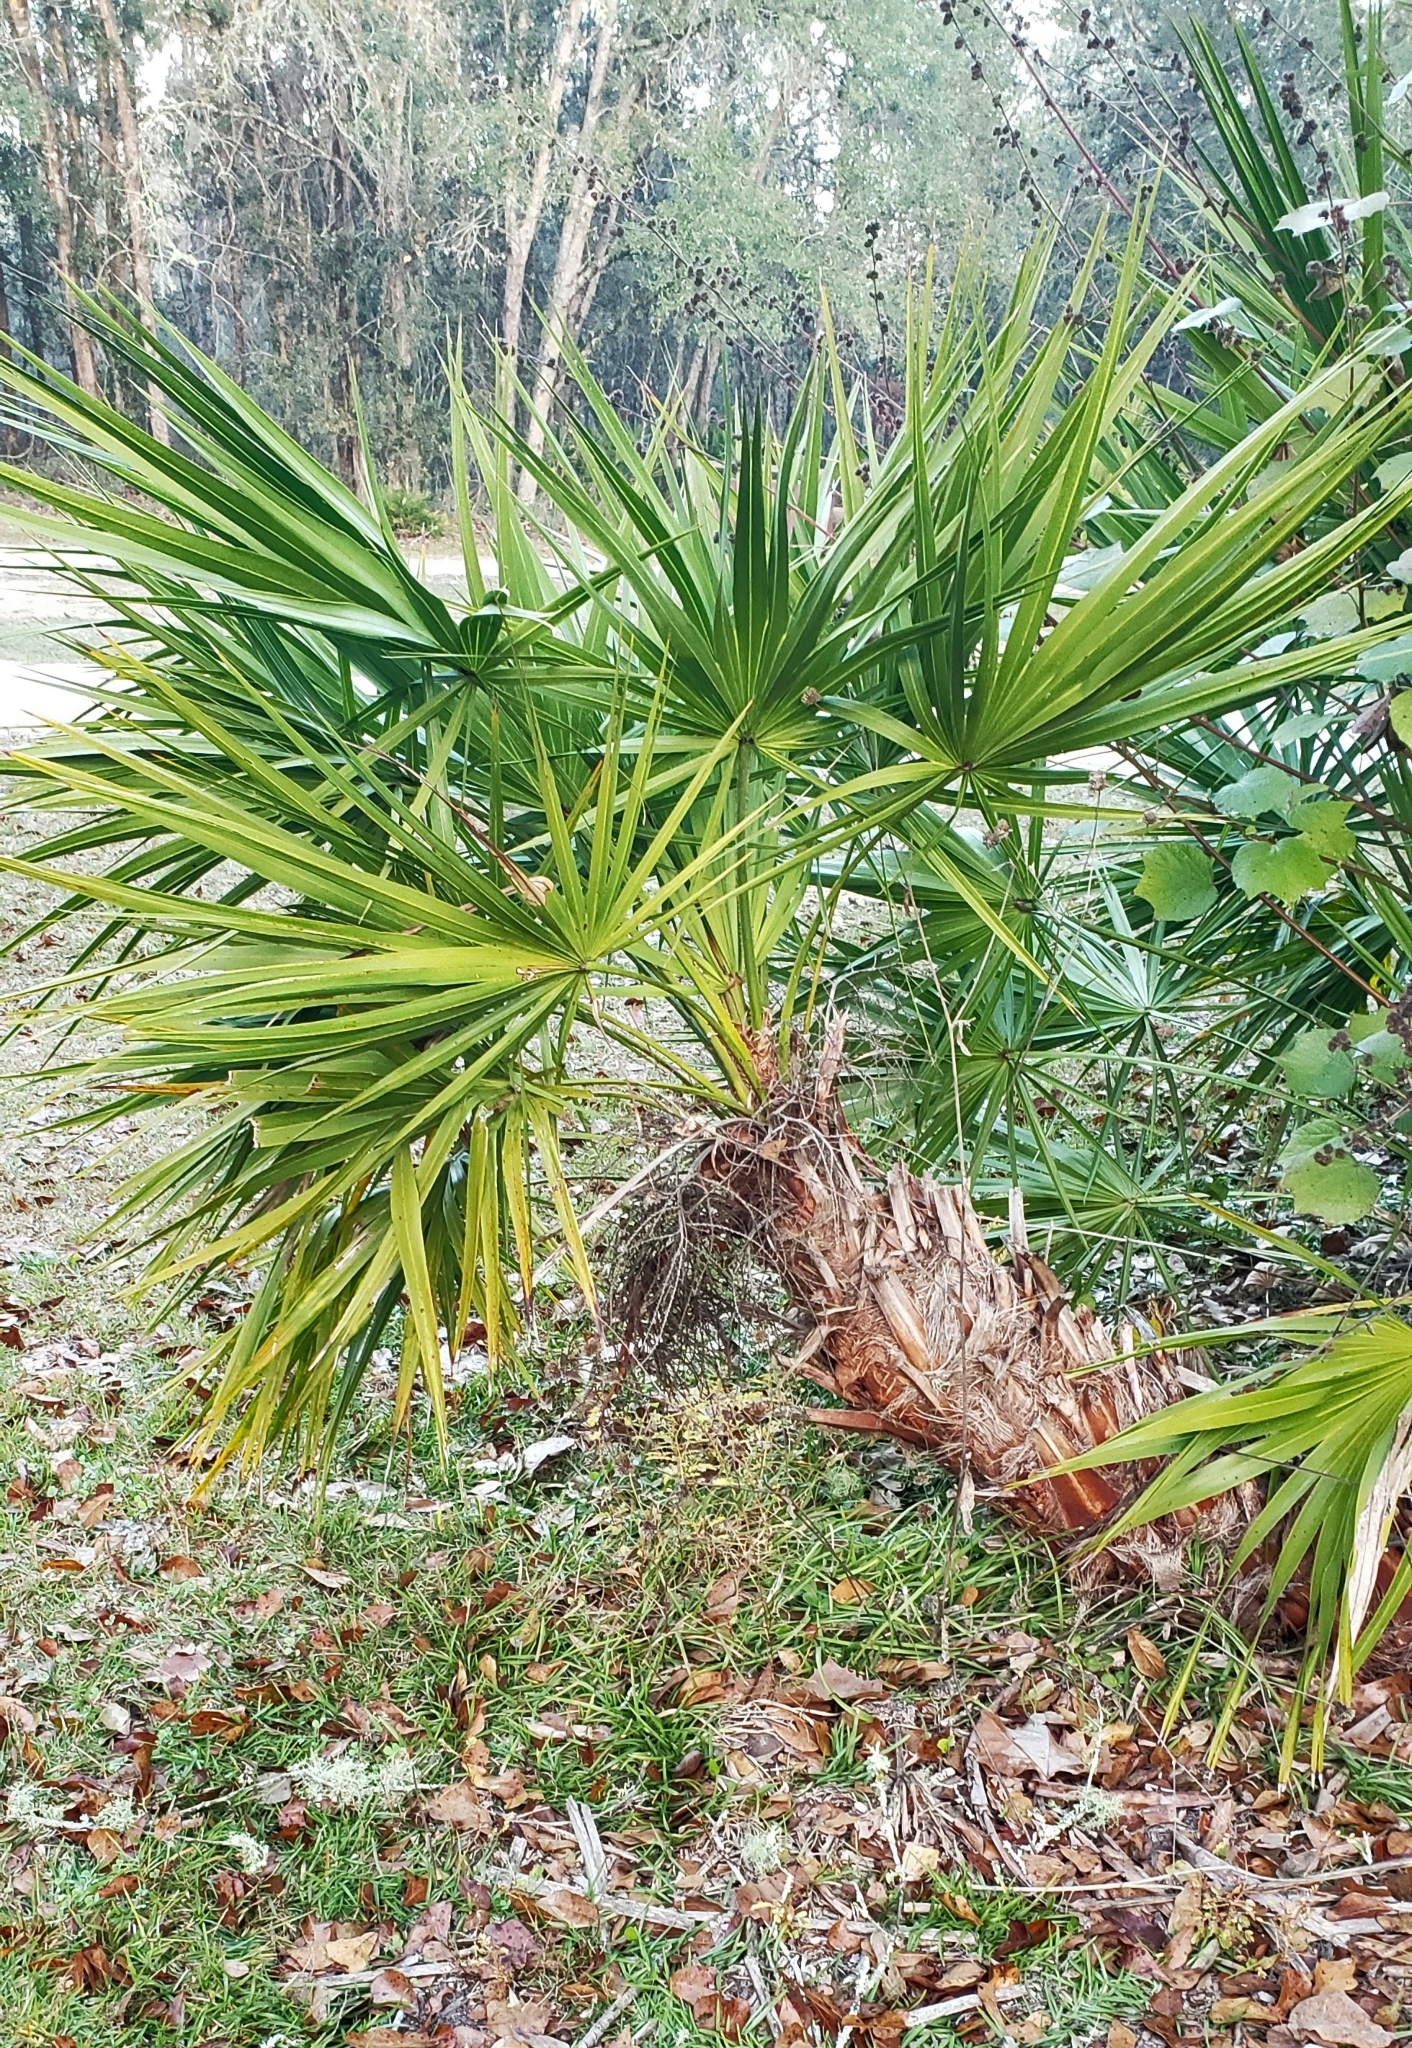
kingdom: Plantae
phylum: Tracheophyta
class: Liliopsida
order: Arecales
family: Arecaceae
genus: Serenoa
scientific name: Serenoa repens
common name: Saw-palmetto
